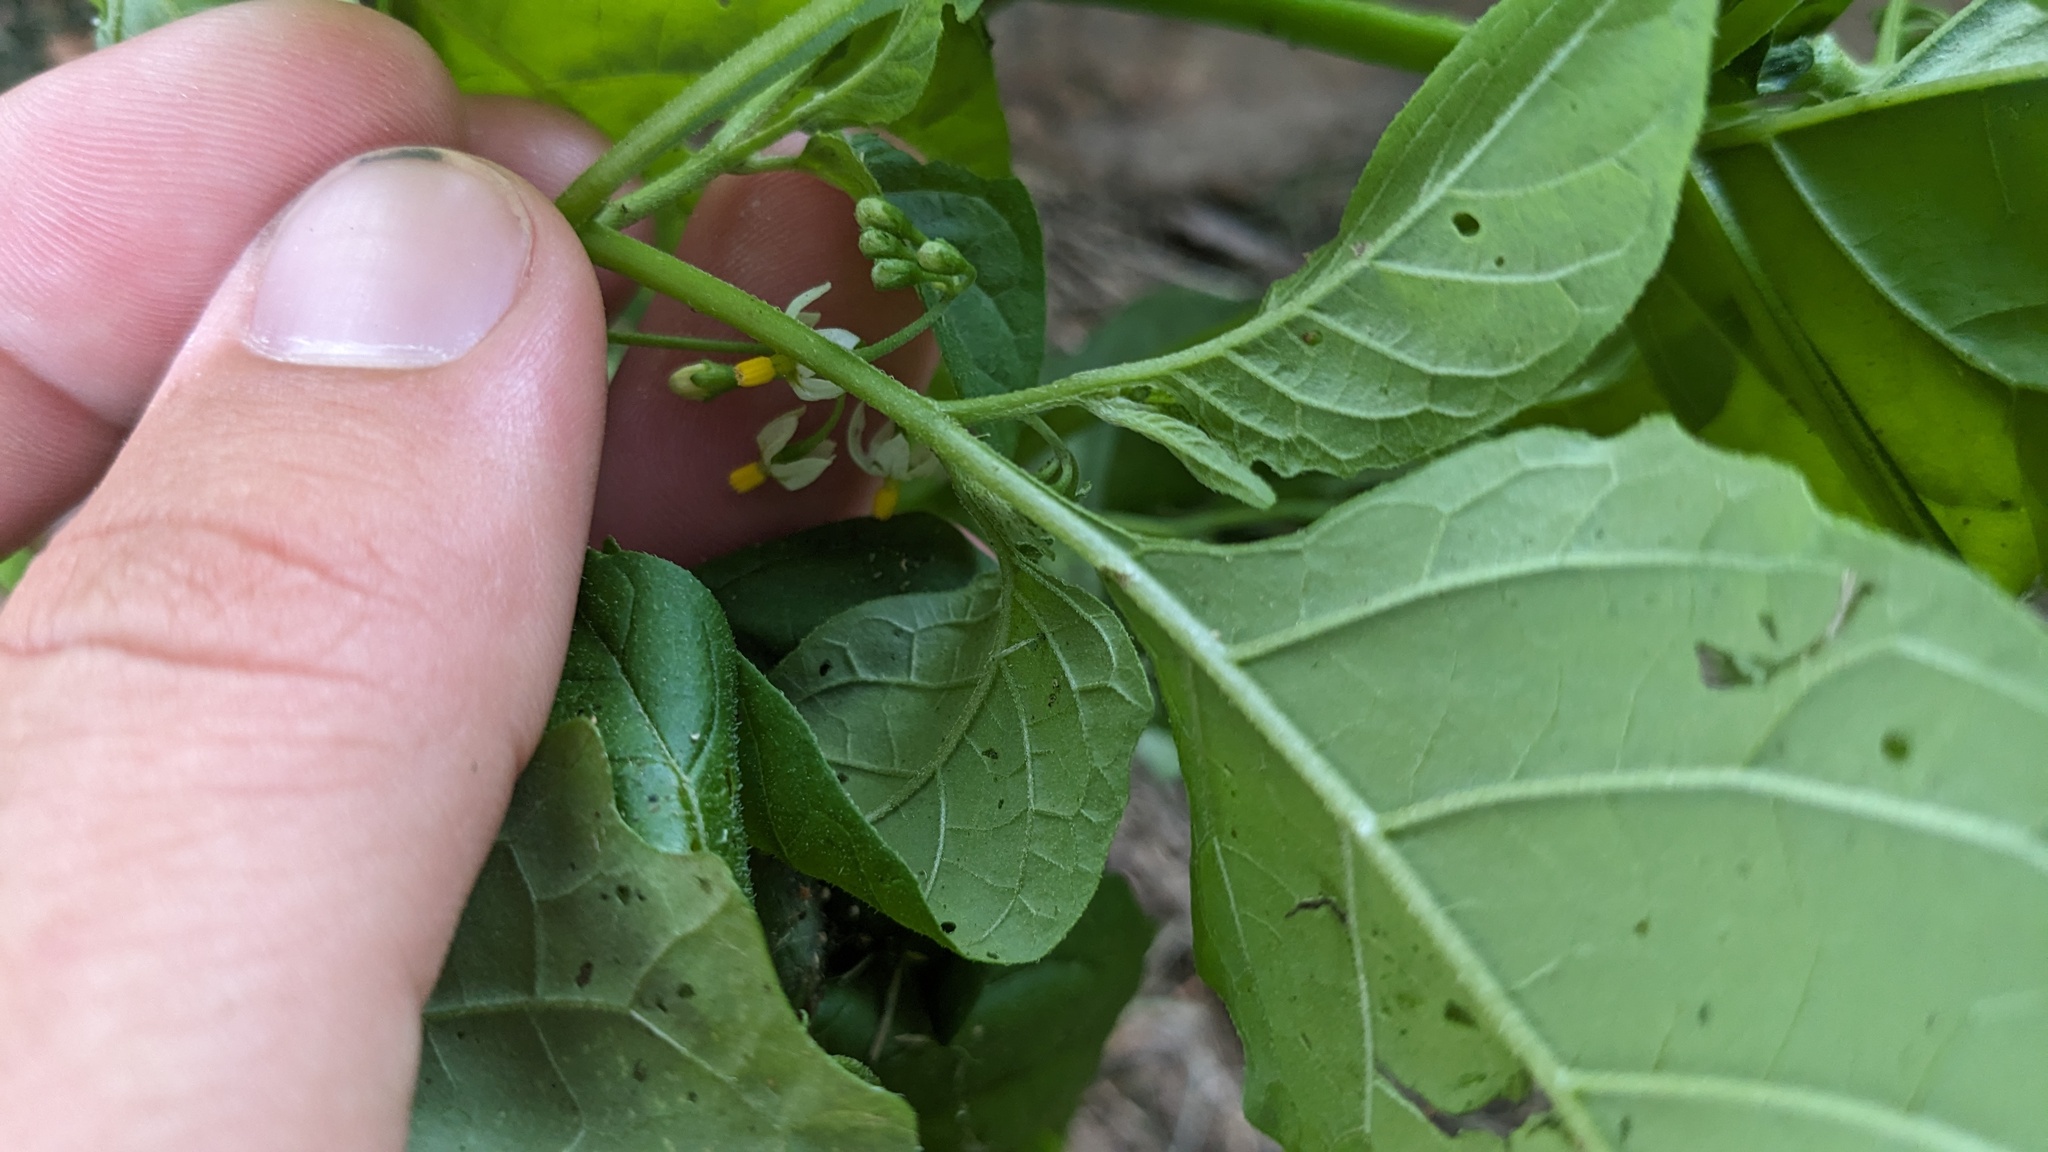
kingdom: Plantae
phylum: Tracheophyta
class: Magnoliopsida
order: Solanales
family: Solanaceae
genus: Solanum
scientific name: Solanum emulans
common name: Eastern black nightshade
